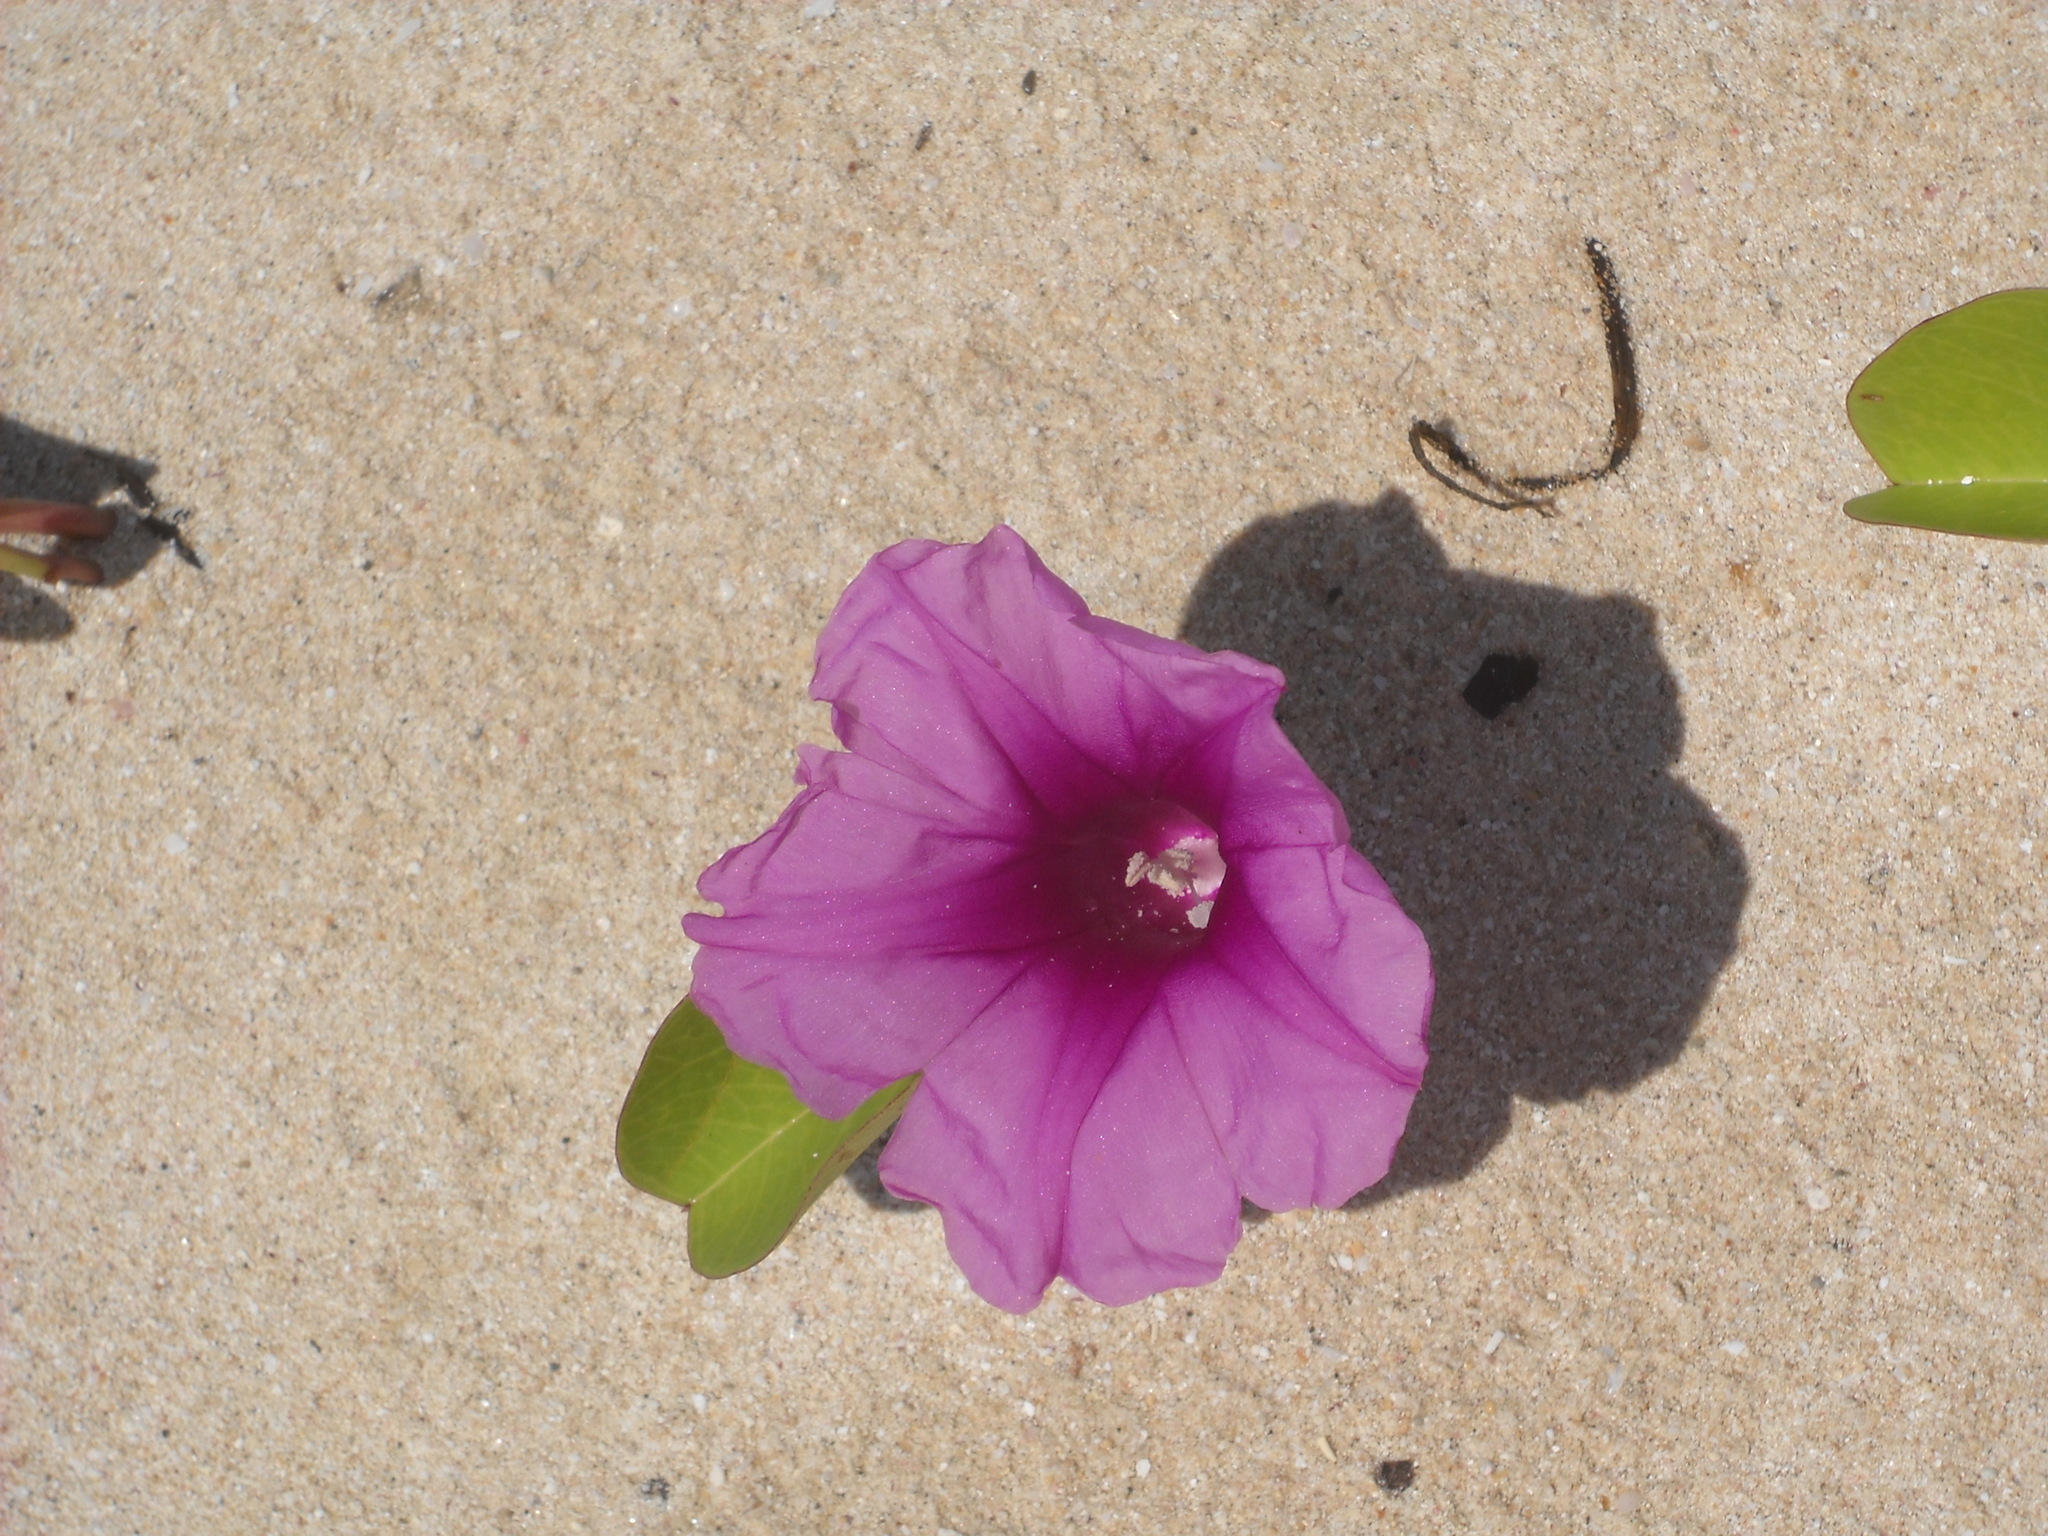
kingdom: Plantae
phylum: Tracheophyta
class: Magnoliopsida
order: Solanales
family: Convolvulaceae
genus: Ipomoea
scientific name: Ipomoea pes-caprae
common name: Beach morning glory
